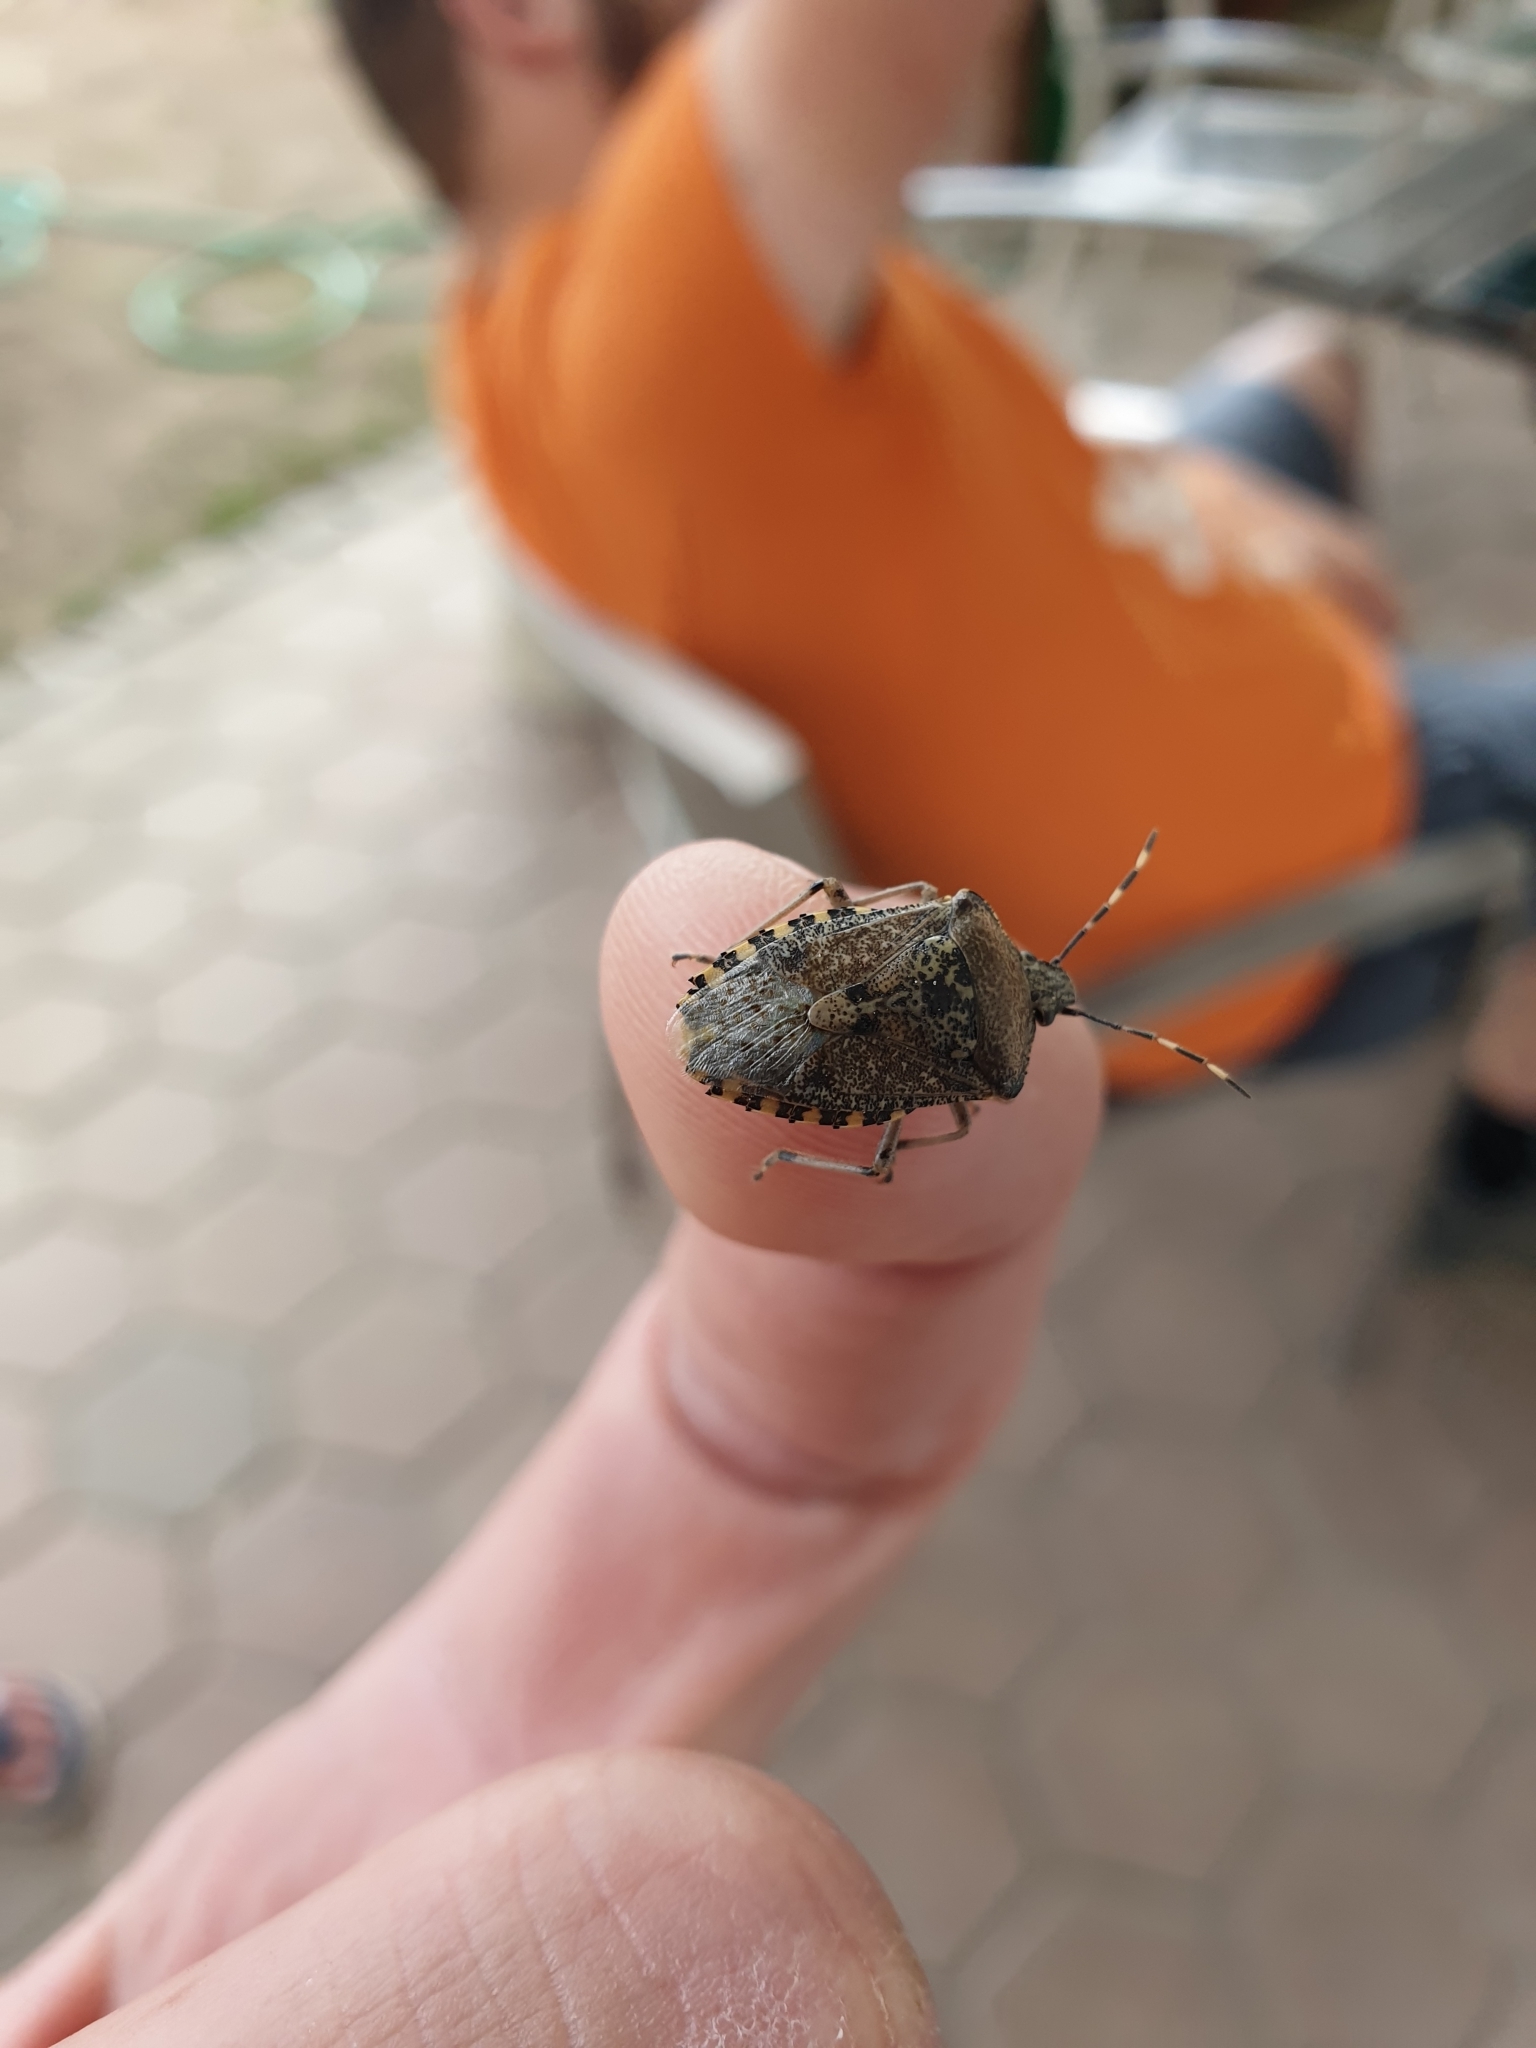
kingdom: Animalia
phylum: Arthropoda
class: Insecta
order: Hemiptera
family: Pentatomidae
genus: Rhaphigaster
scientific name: Rhaphigaster nebulosa
